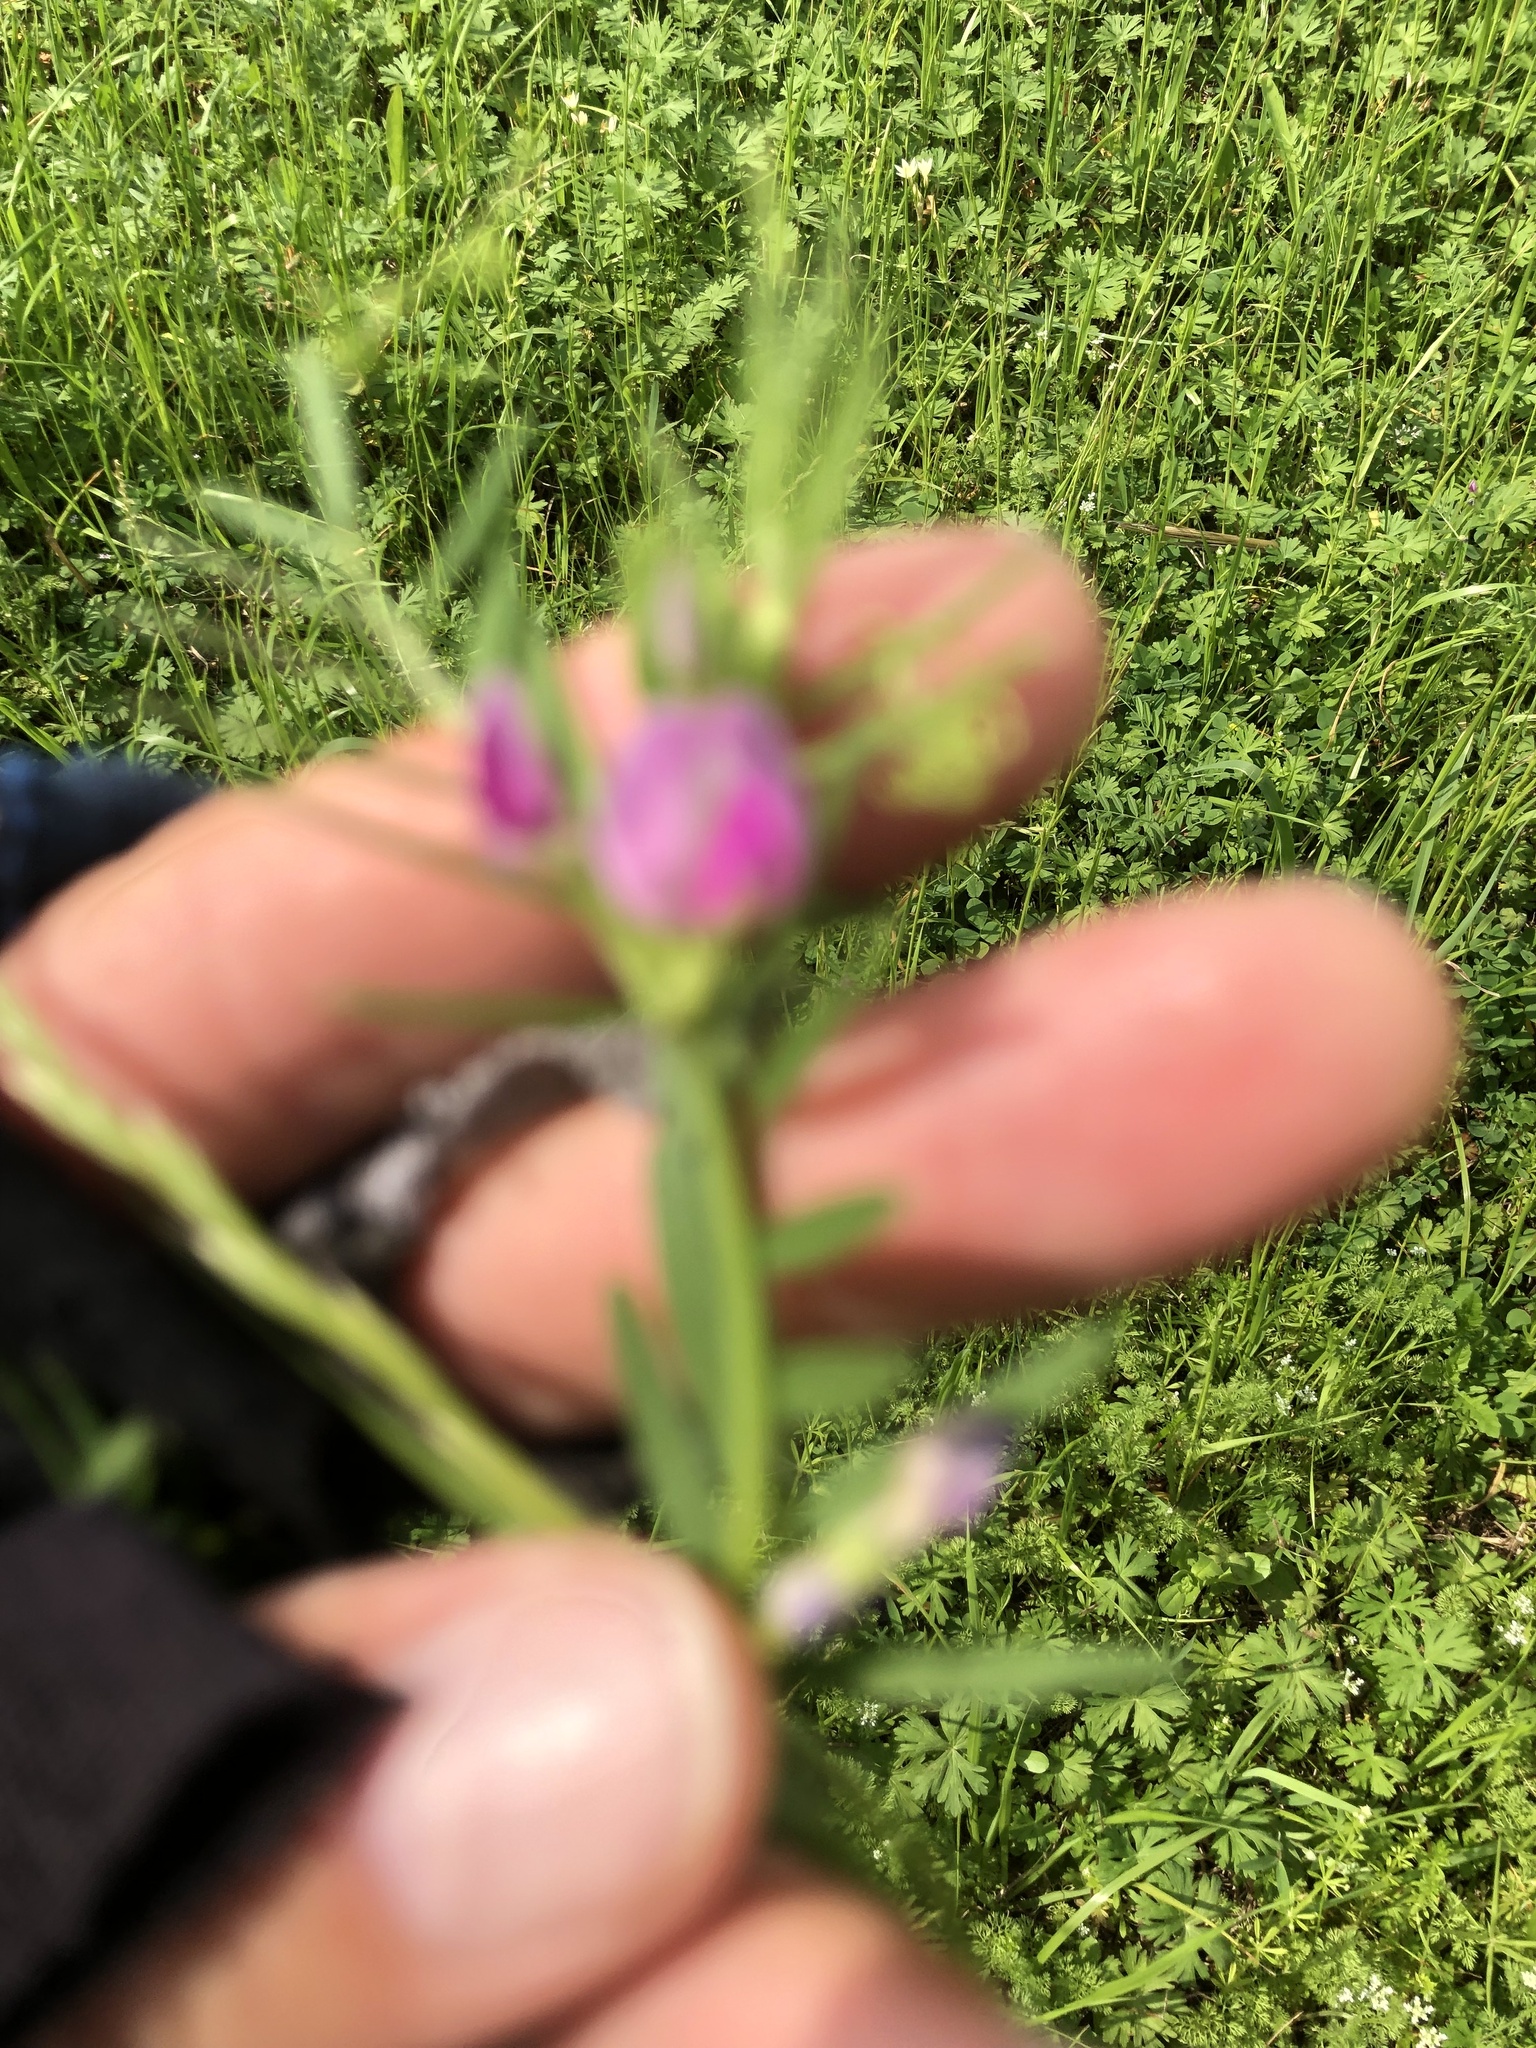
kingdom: Plantae
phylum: Tracheophyta
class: Magnoliopsida
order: Fabales
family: Fabaceae
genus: Vicia
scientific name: Vicia sativa
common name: Garden vetch
